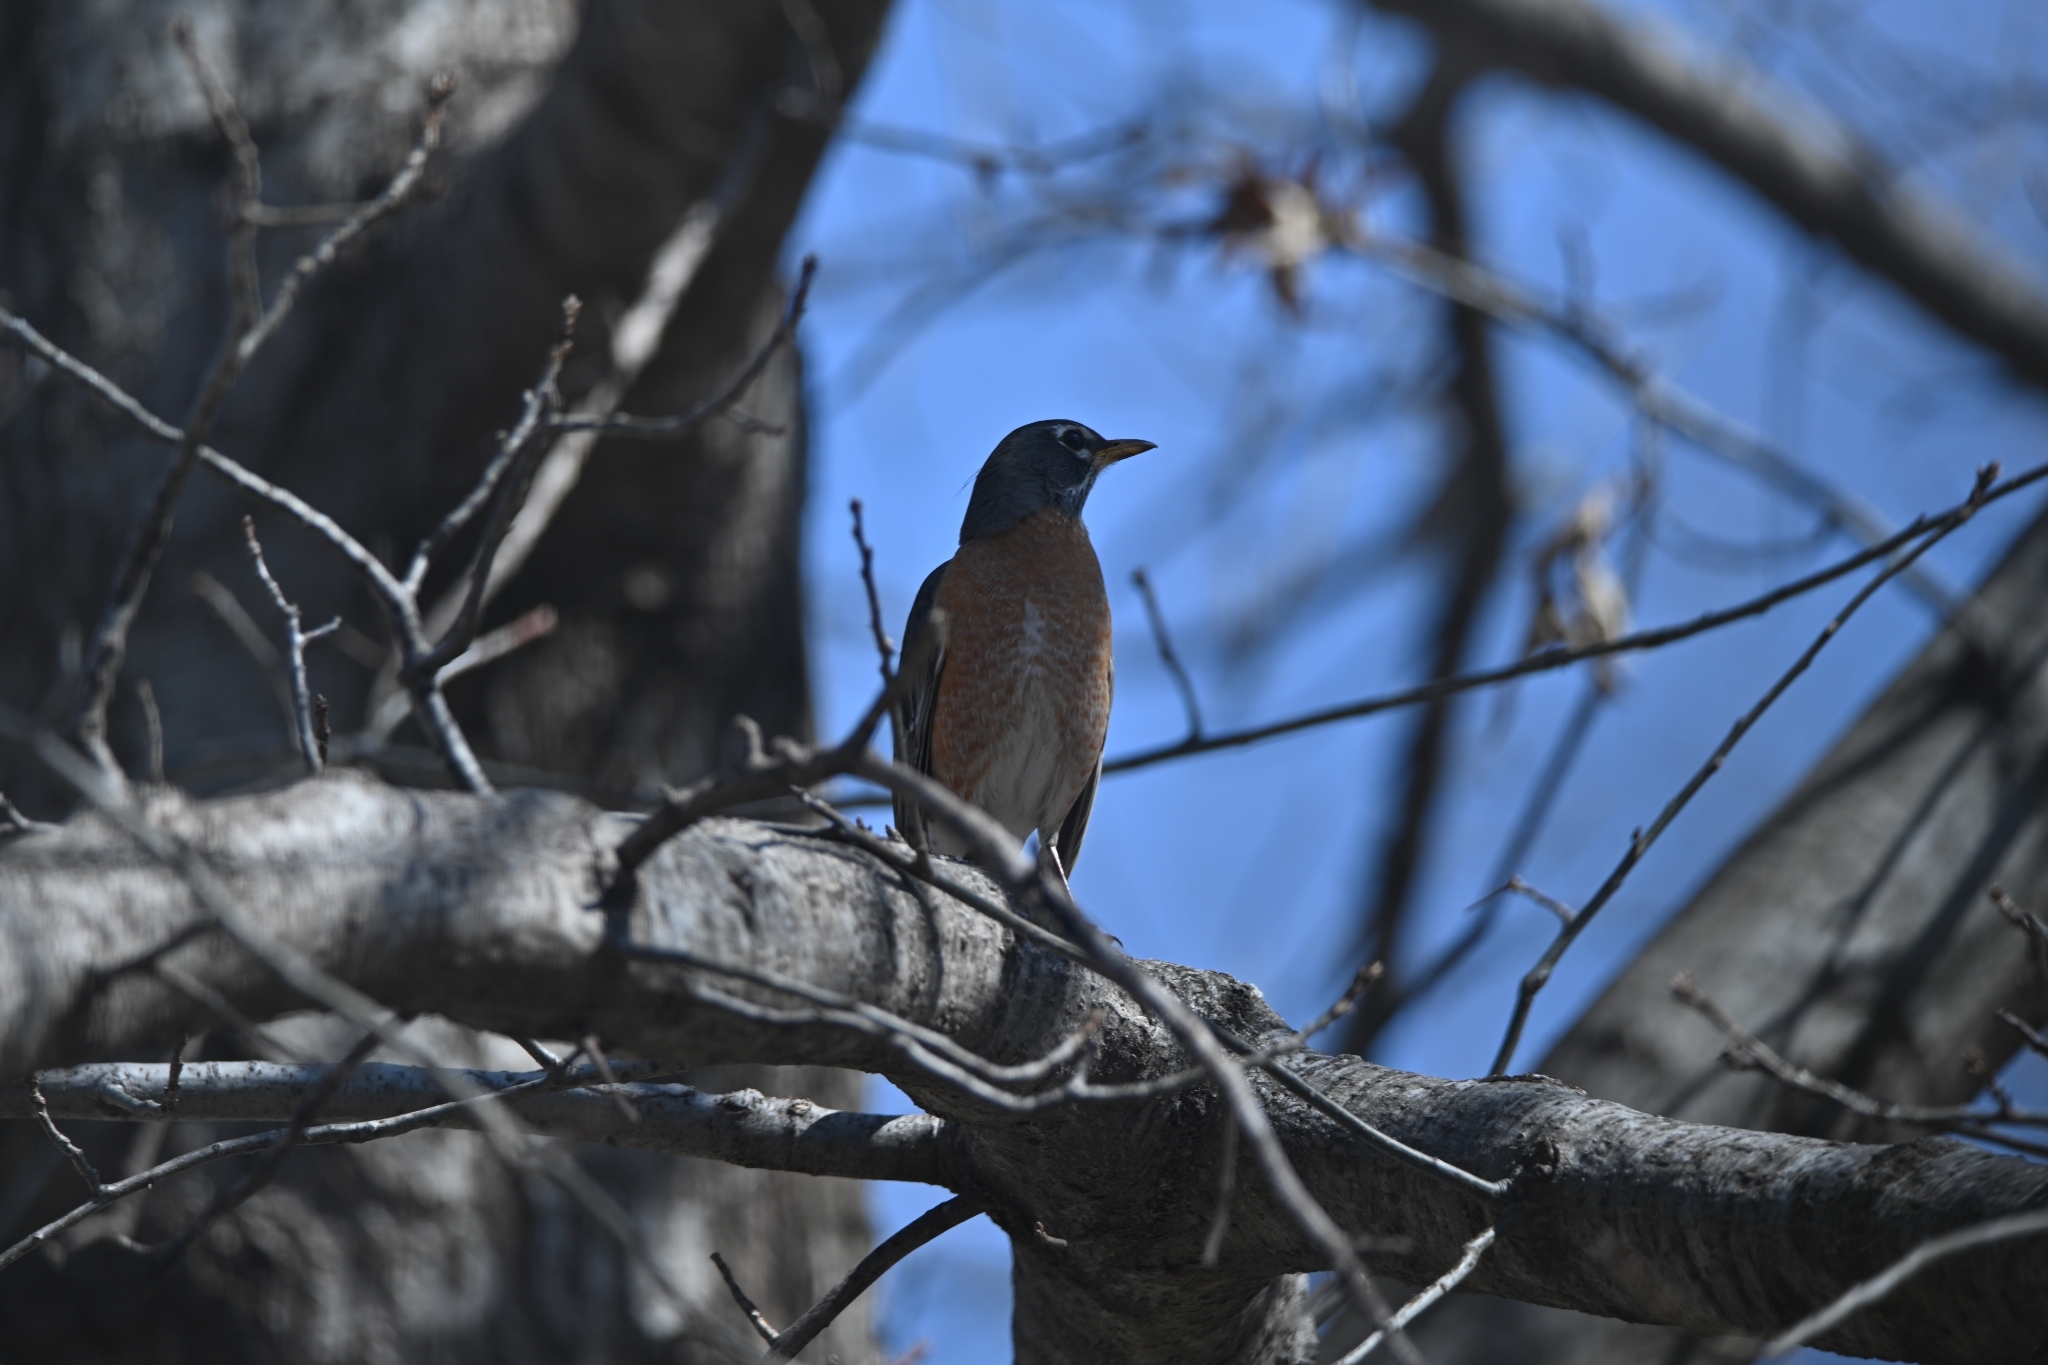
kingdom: Animalia
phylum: Chordata
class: Aves
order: Passeriformes
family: Turdidae
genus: Turdus
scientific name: Turdus migratorius
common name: American robin
